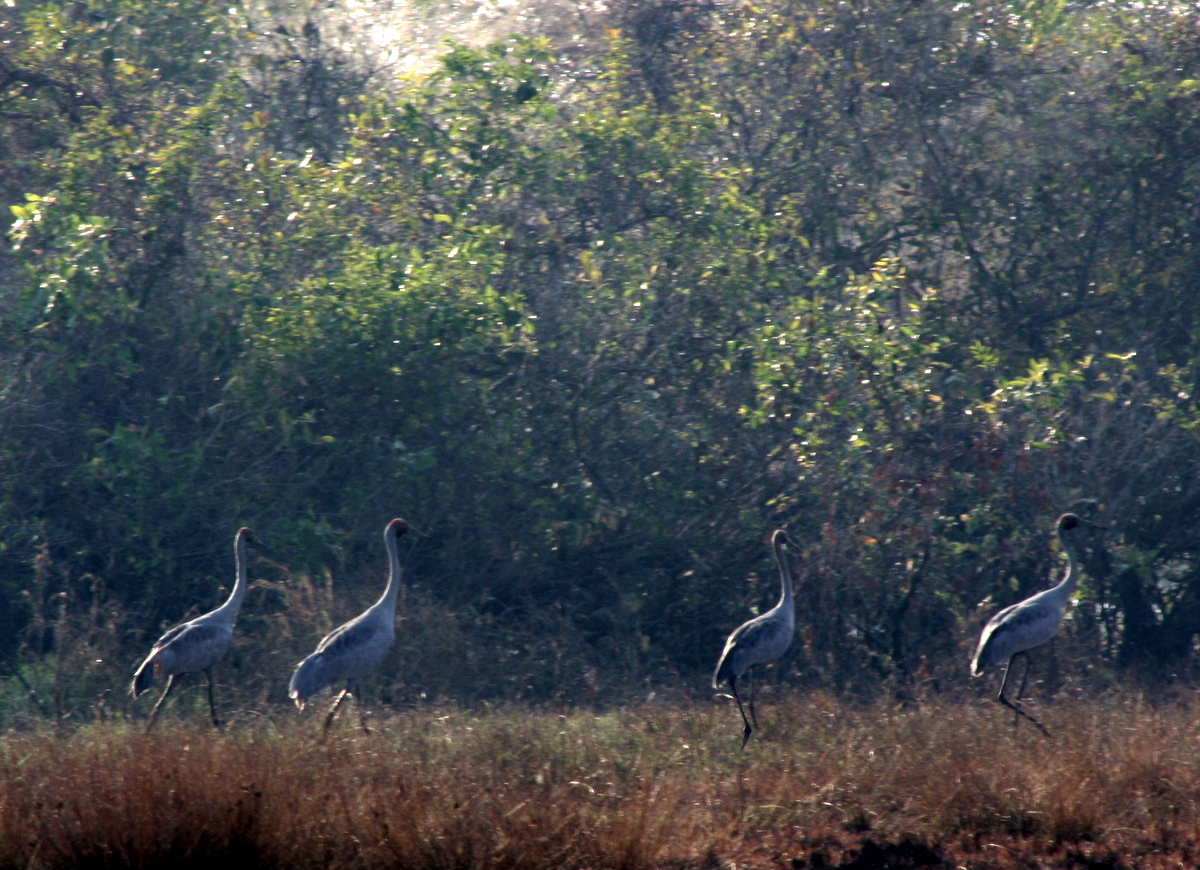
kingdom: Animalia
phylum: Chordata
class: Aves
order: Gruiformes
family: Gruidae
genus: Grus
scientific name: Grus rubicunda
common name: Brolga
